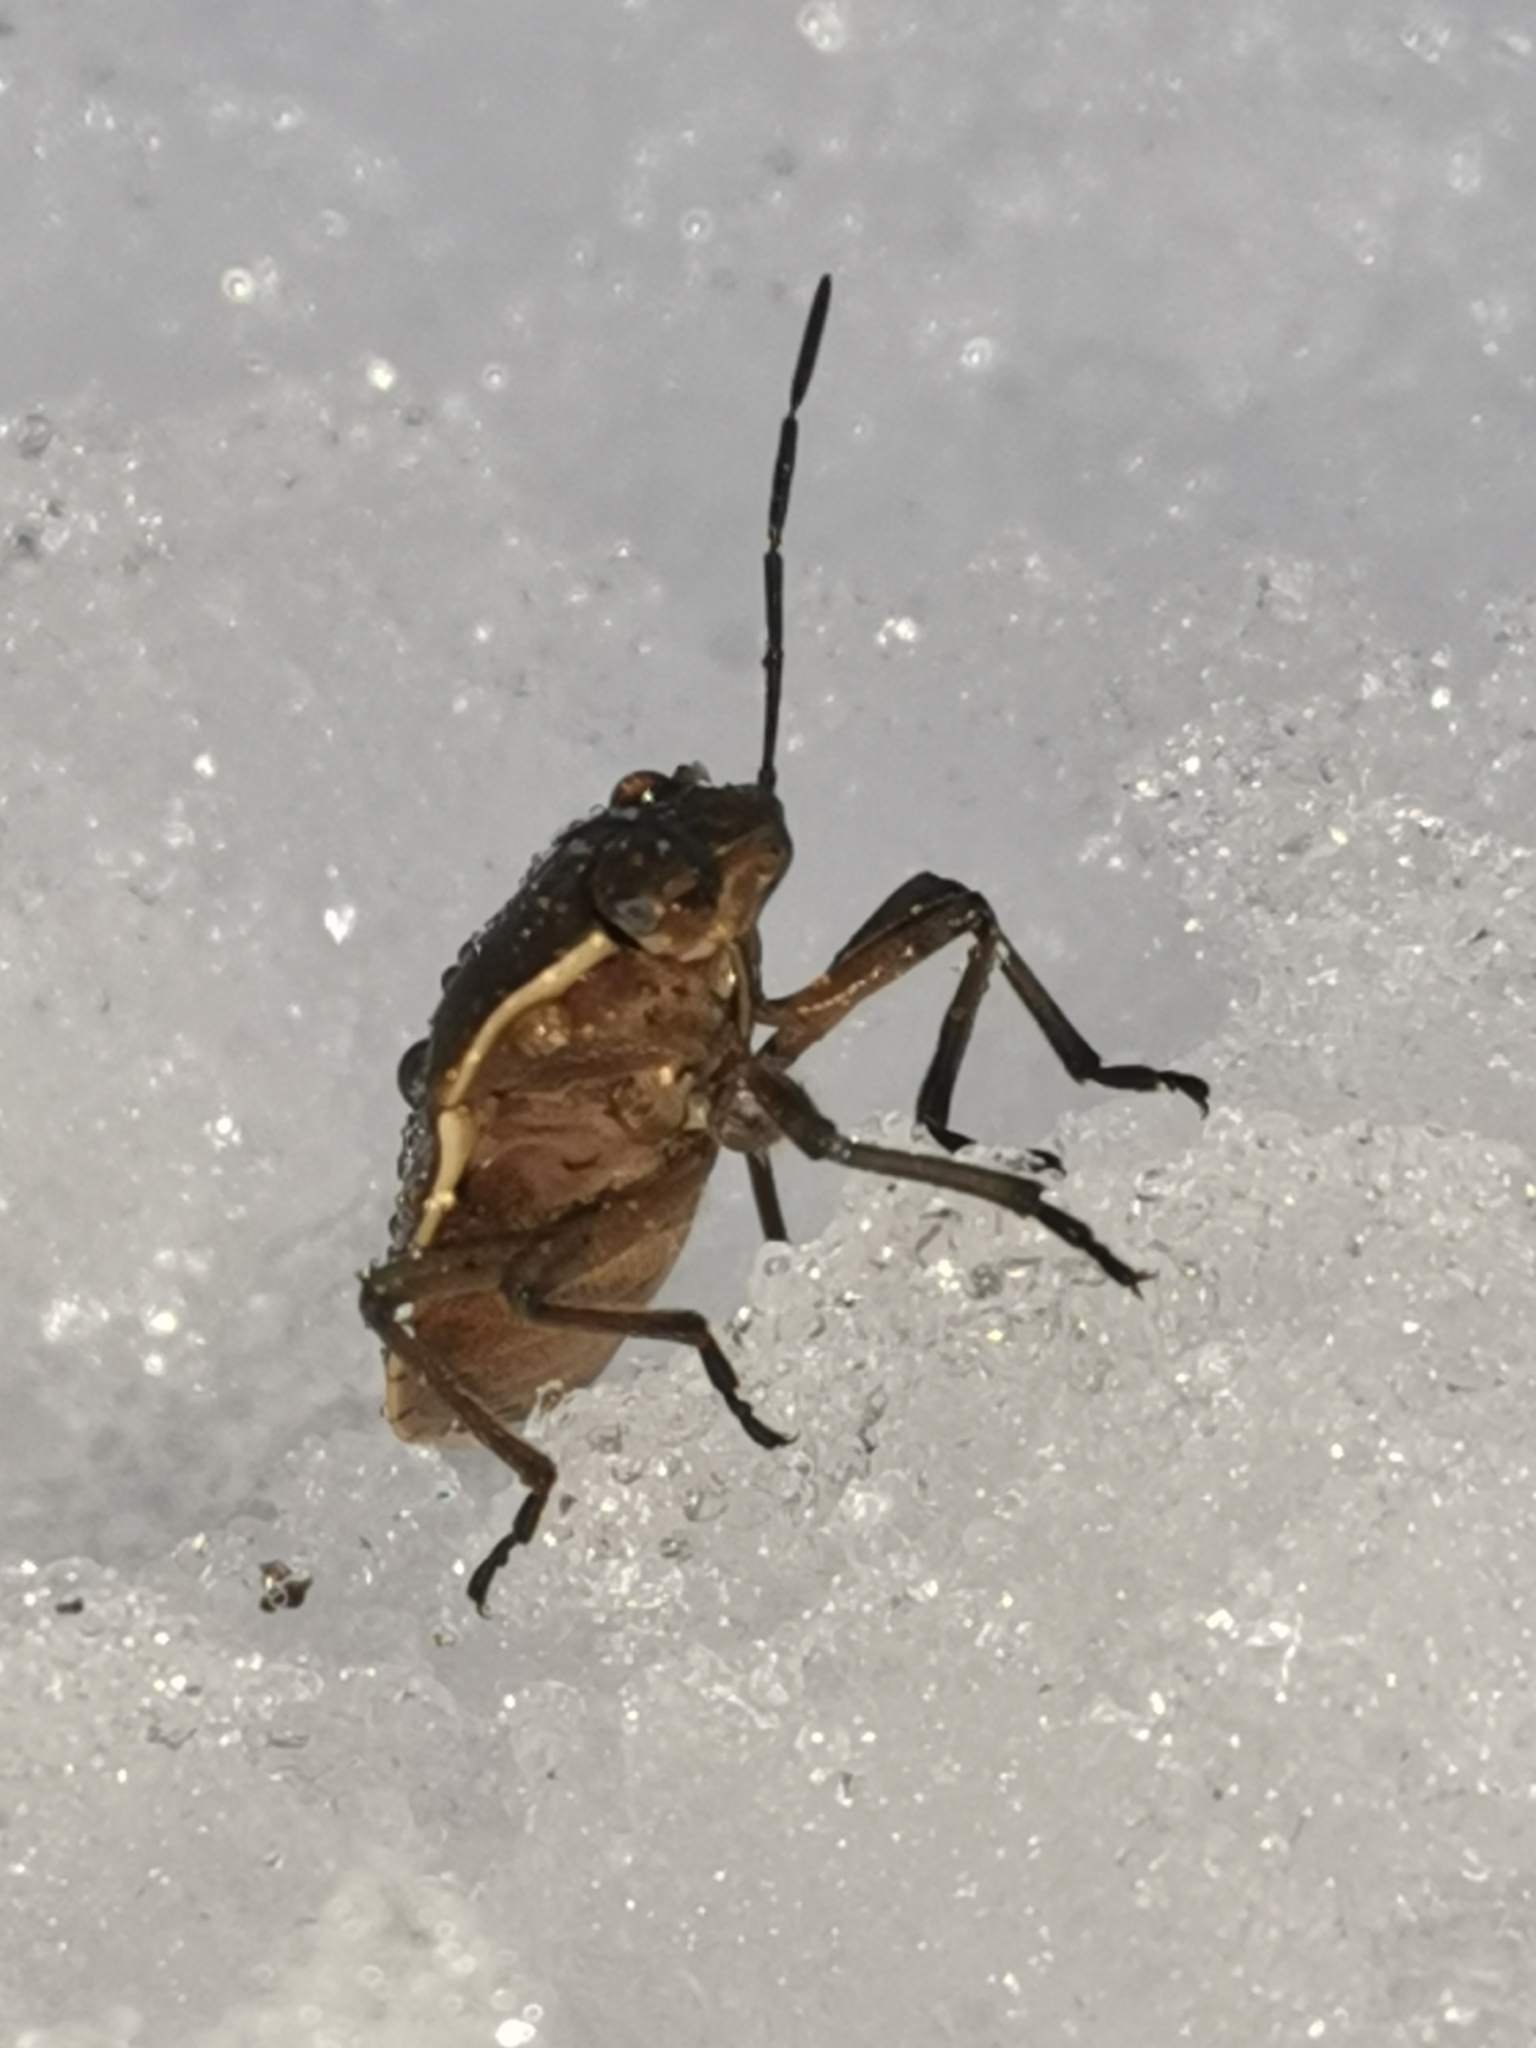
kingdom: Animalia
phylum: Arthropoda
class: Insecta
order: Hemiptera
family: Pentatomidae
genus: Chlorochroa
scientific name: Chlorochroa pinicola
